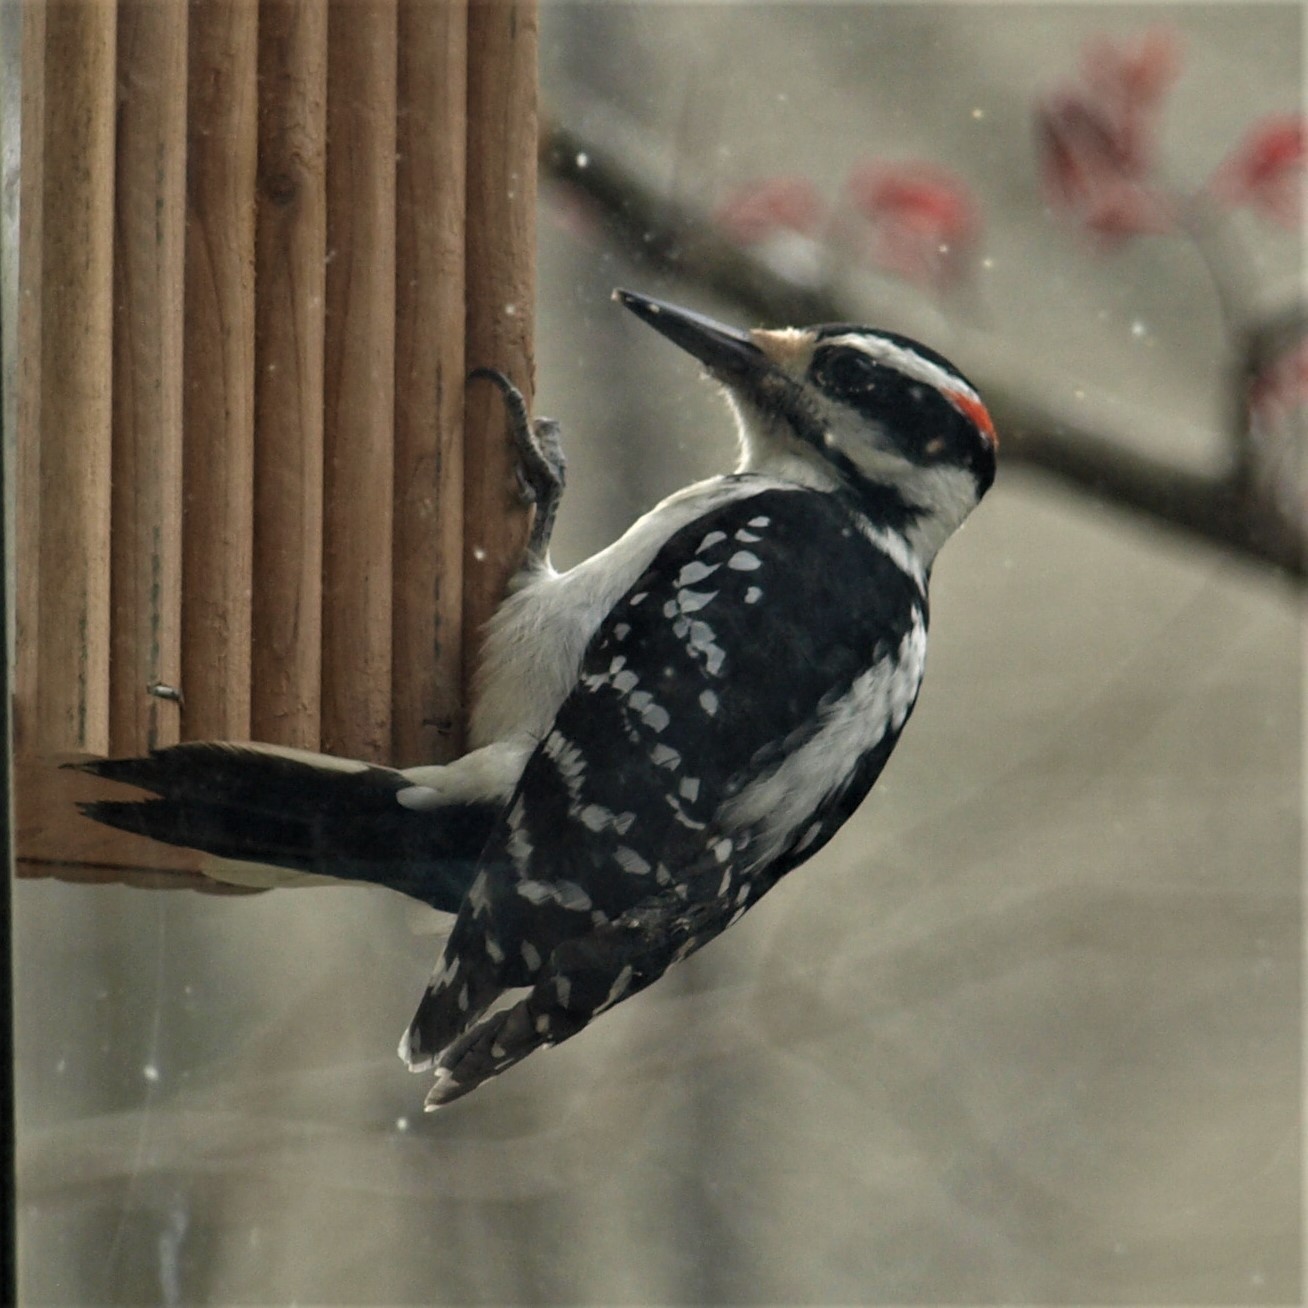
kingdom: Animalia
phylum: Chordata
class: Aves
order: Piciformes
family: Picidae
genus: Leuconotopicus
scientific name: Leuconotopicus villosus
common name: Hairy woodpecker
